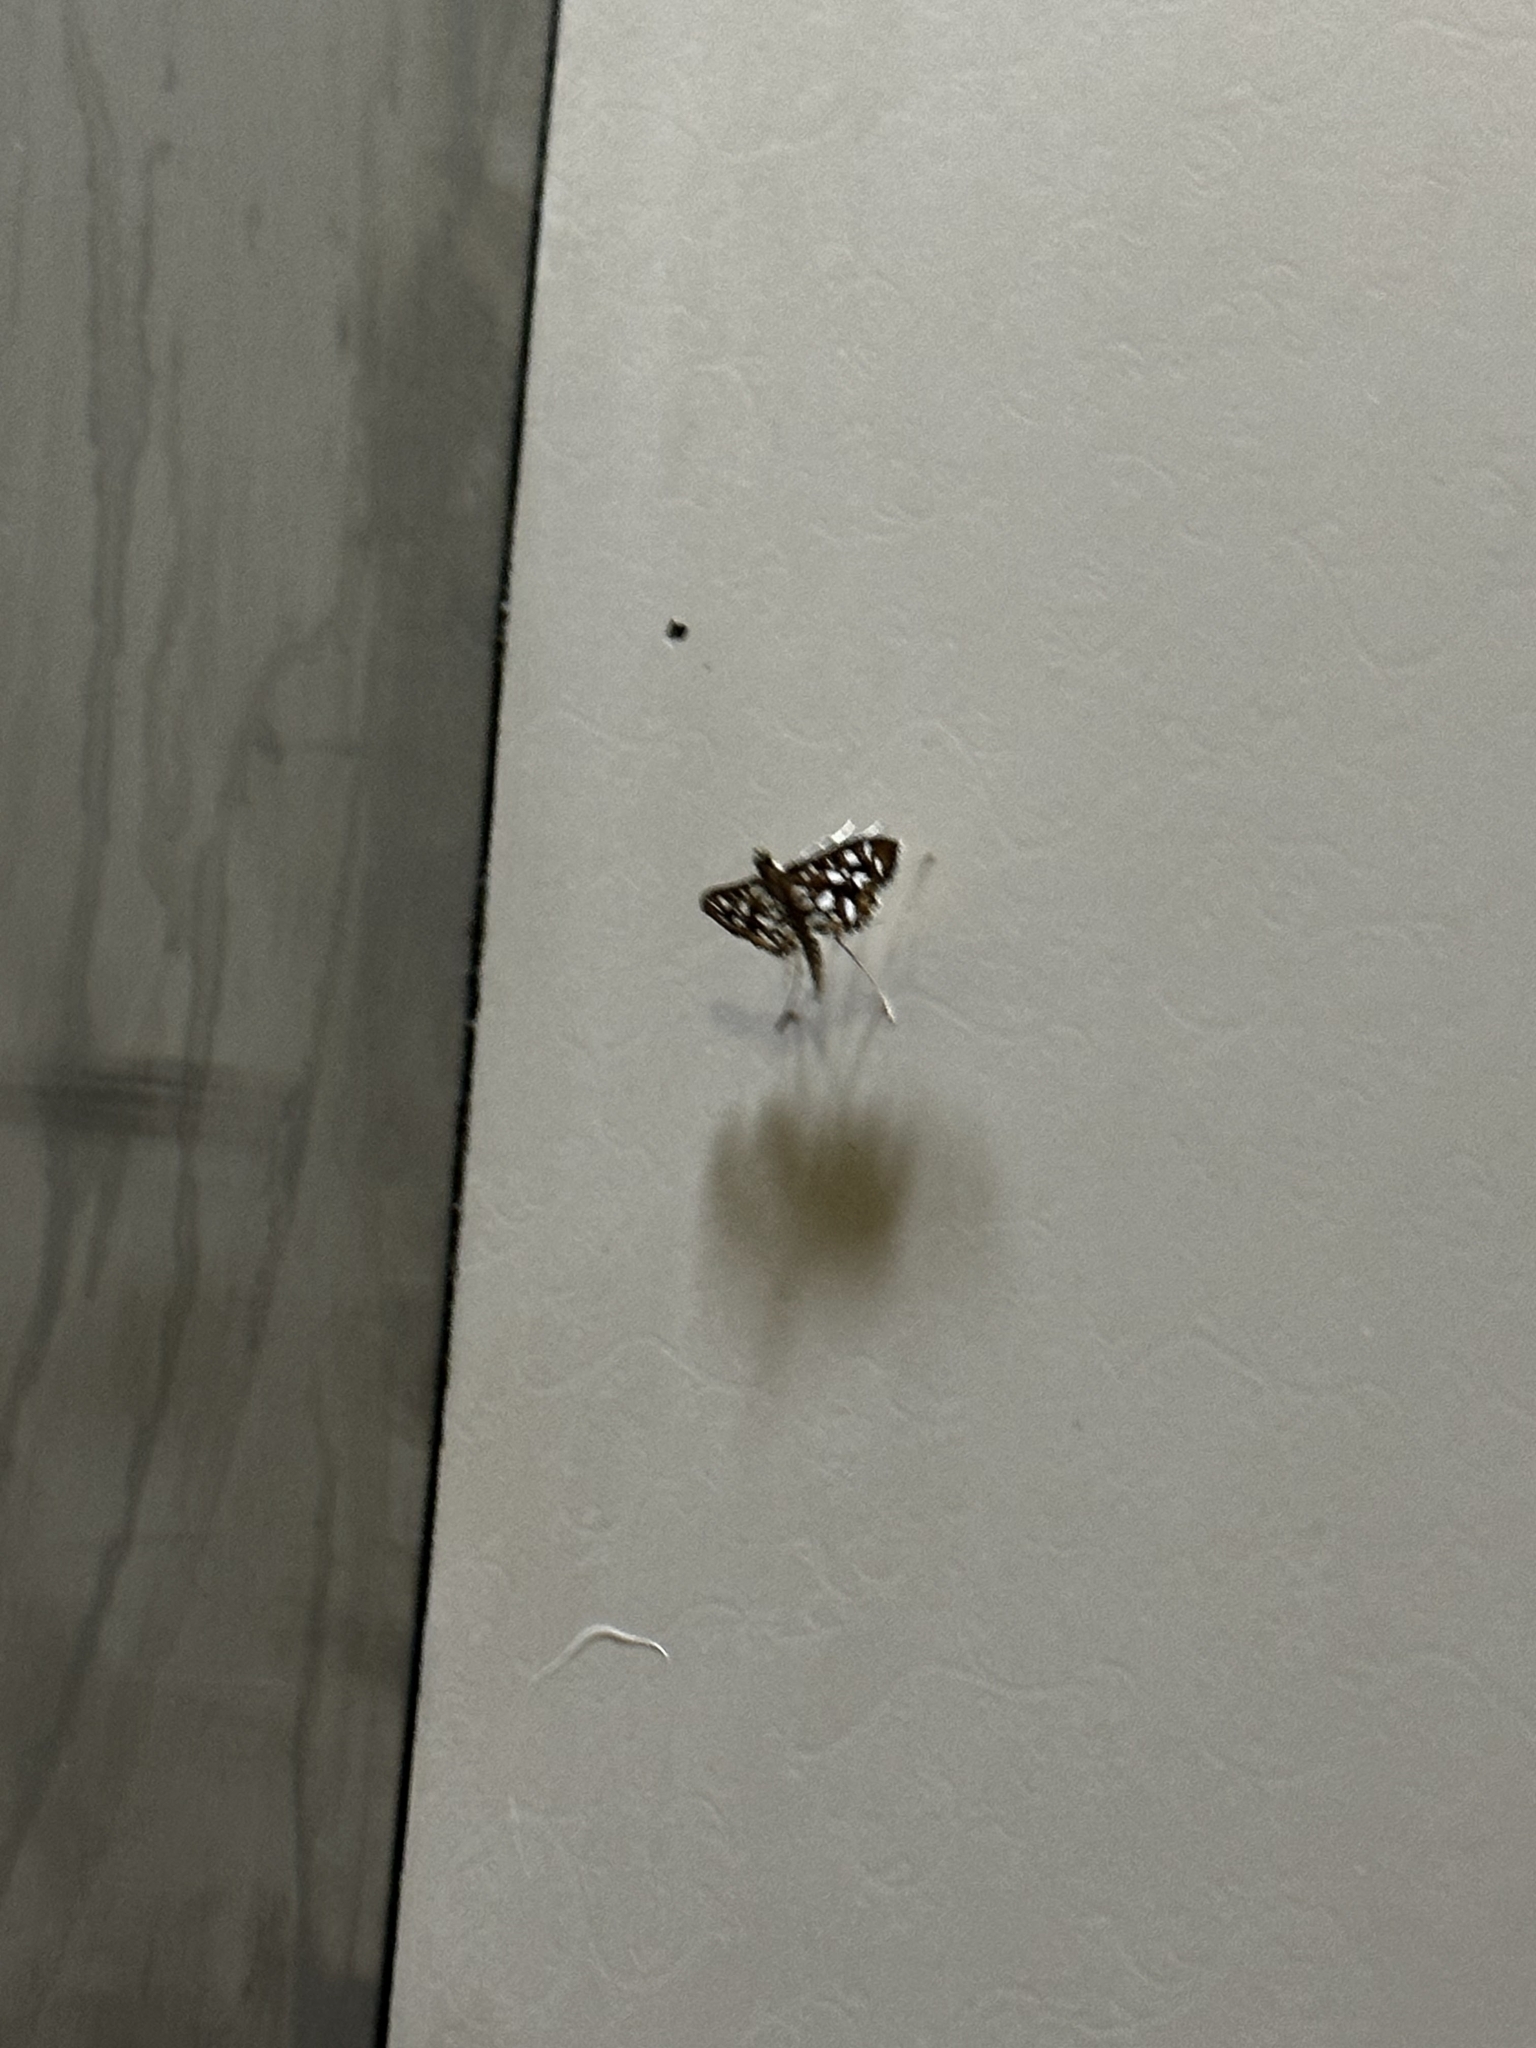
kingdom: Animalia
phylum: Arthropoda
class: Insecta
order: Lepidoptera
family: Crambidae
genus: Nausinoe
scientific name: Nausinoe geometralis
